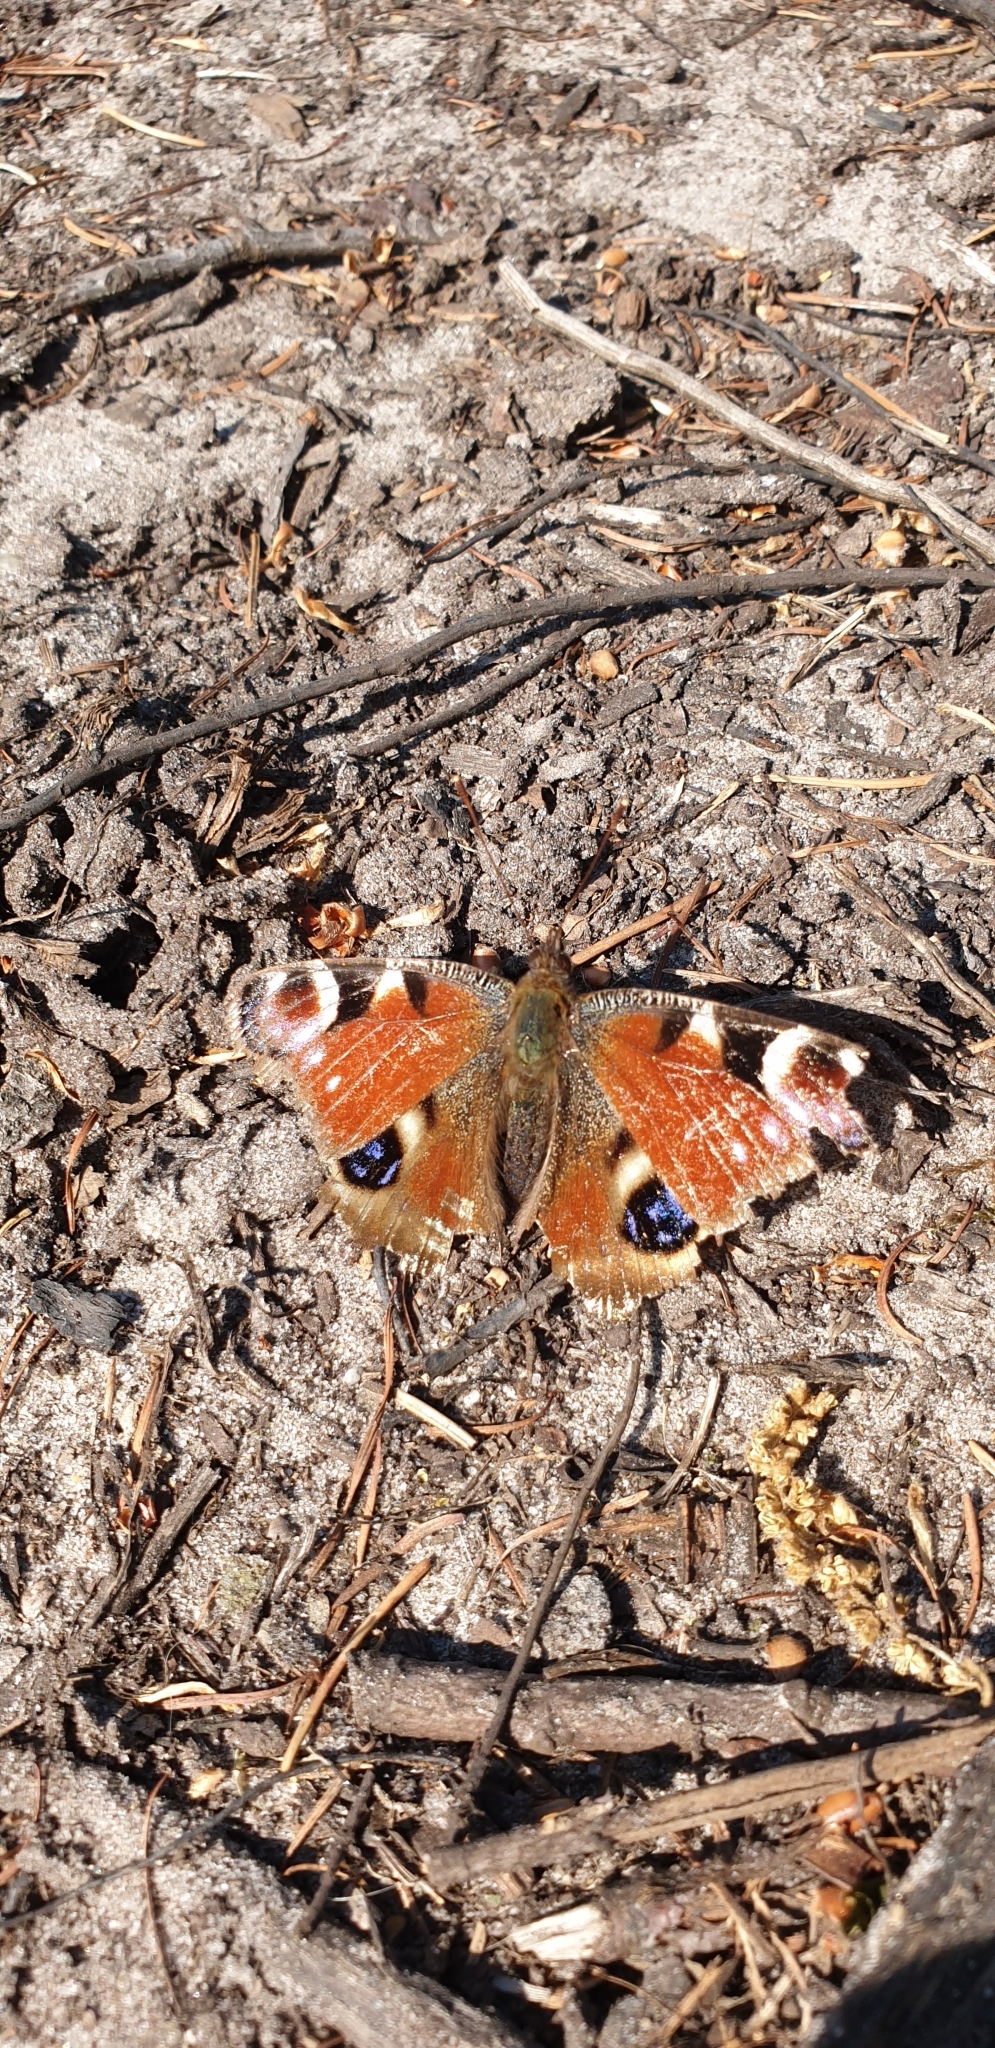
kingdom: Animalia
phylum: Arthropoda
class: Insecta
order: Lepidoptera
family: Nymphalidae
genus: Aglais
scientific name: Aglais io
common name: Peacock
